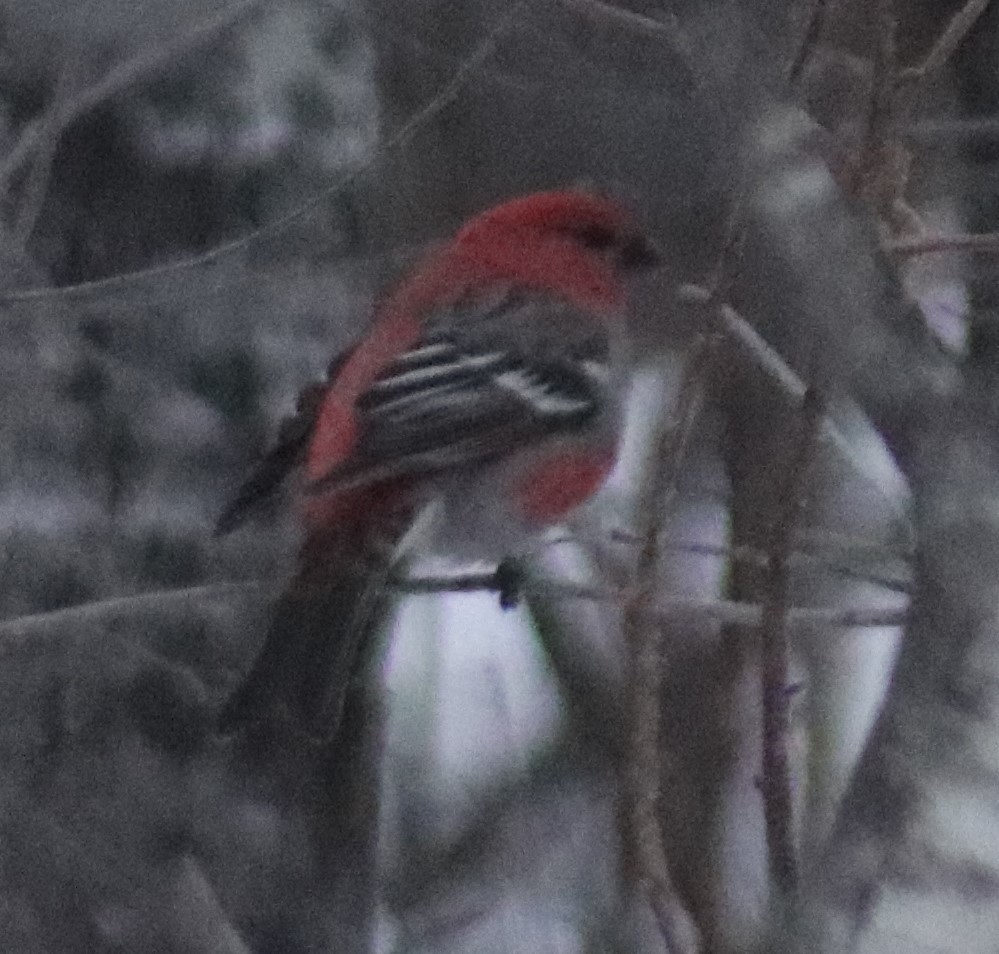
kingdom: Animalia
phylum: Chordata
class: Aves
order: Passeriformes
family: Fringillidae
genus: Pinicola
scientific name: Pinicola enucleator
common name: Pine grosbeak
